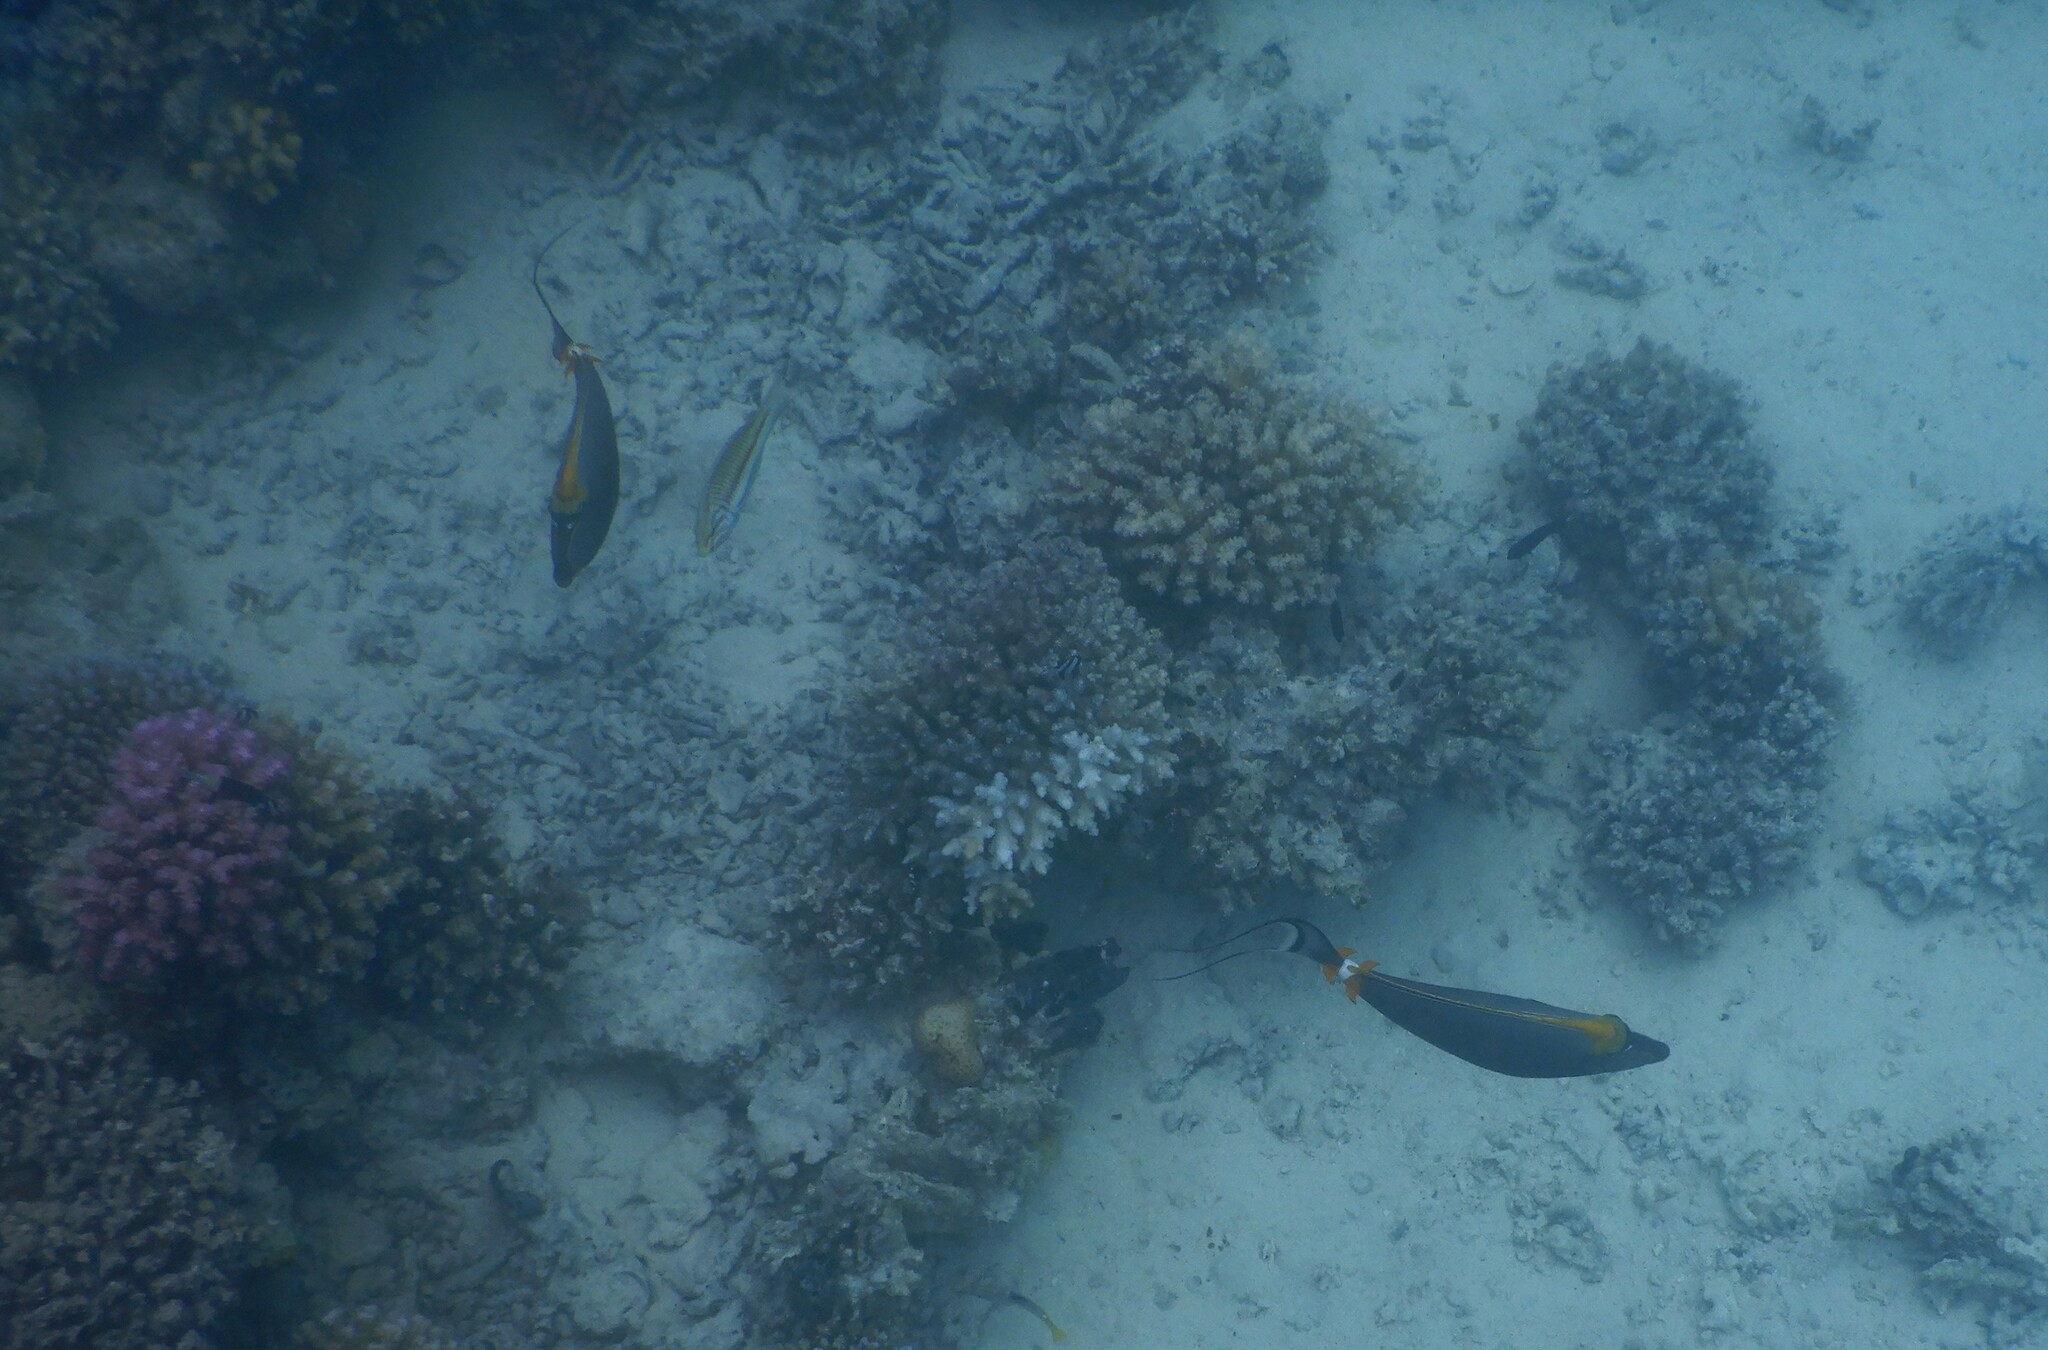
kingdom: Animalia
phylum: Chordata
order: Perciformes
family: Acanthuridae
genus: Naso
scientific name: Naso elegans
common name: Orangespine unicornfish
